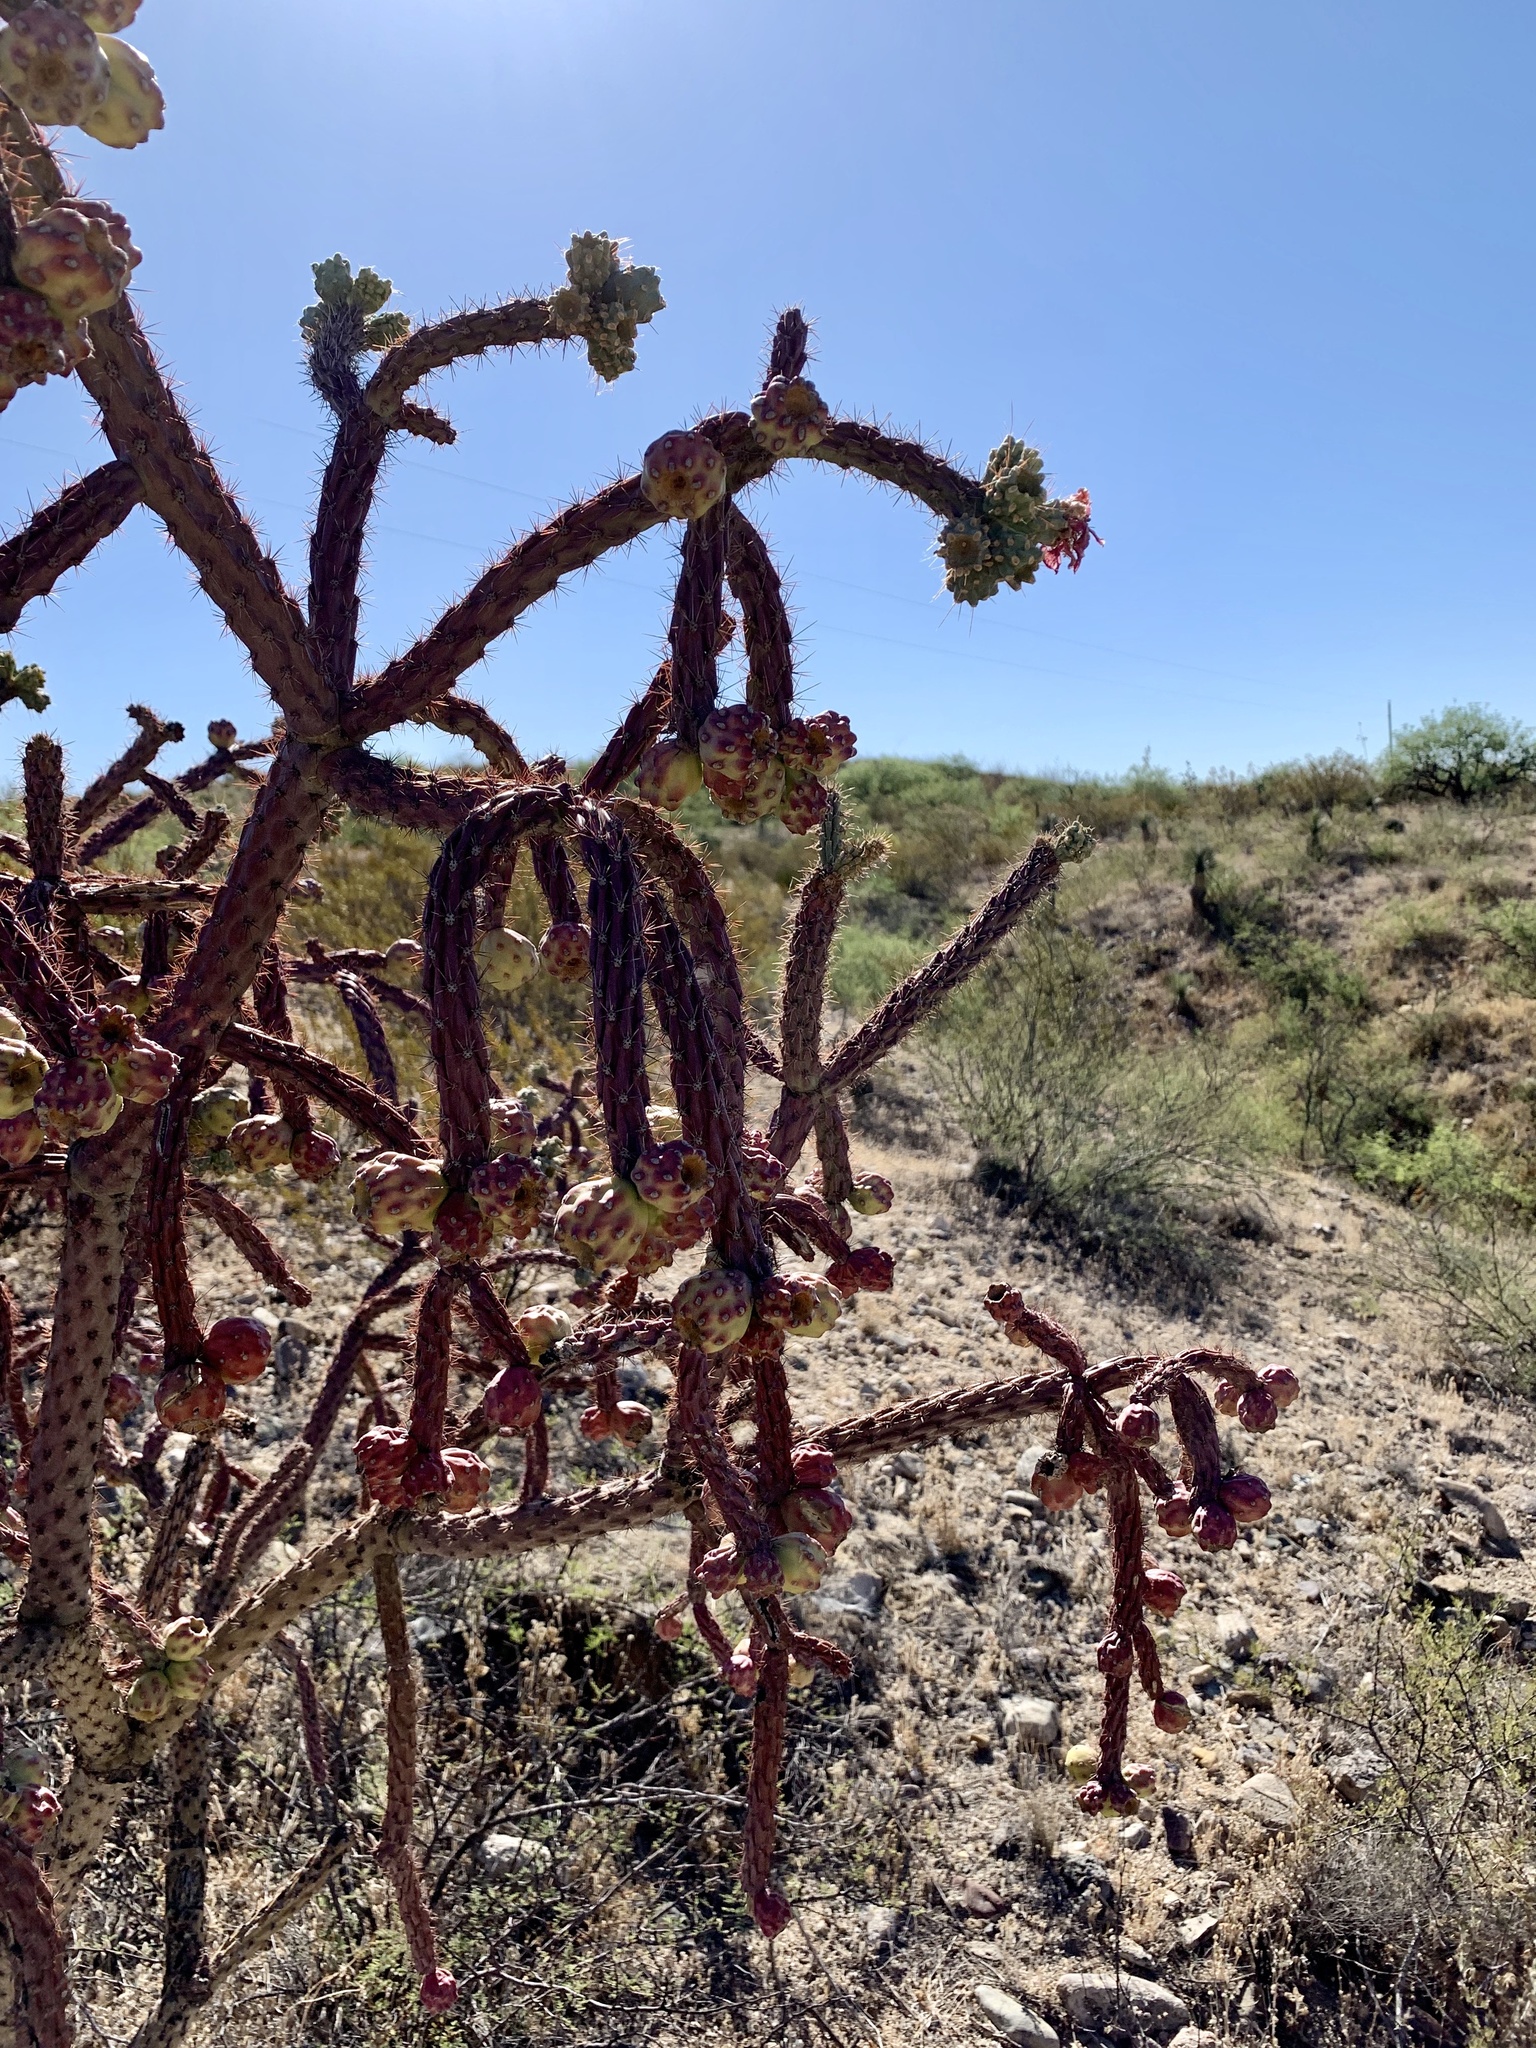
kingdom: Plantae
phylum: Tracheophyta
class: Magnoliopsida
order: Caryophyllales
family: Cactaceae
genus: Cylindropuntia
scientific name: Cylindropuntia thurberi
